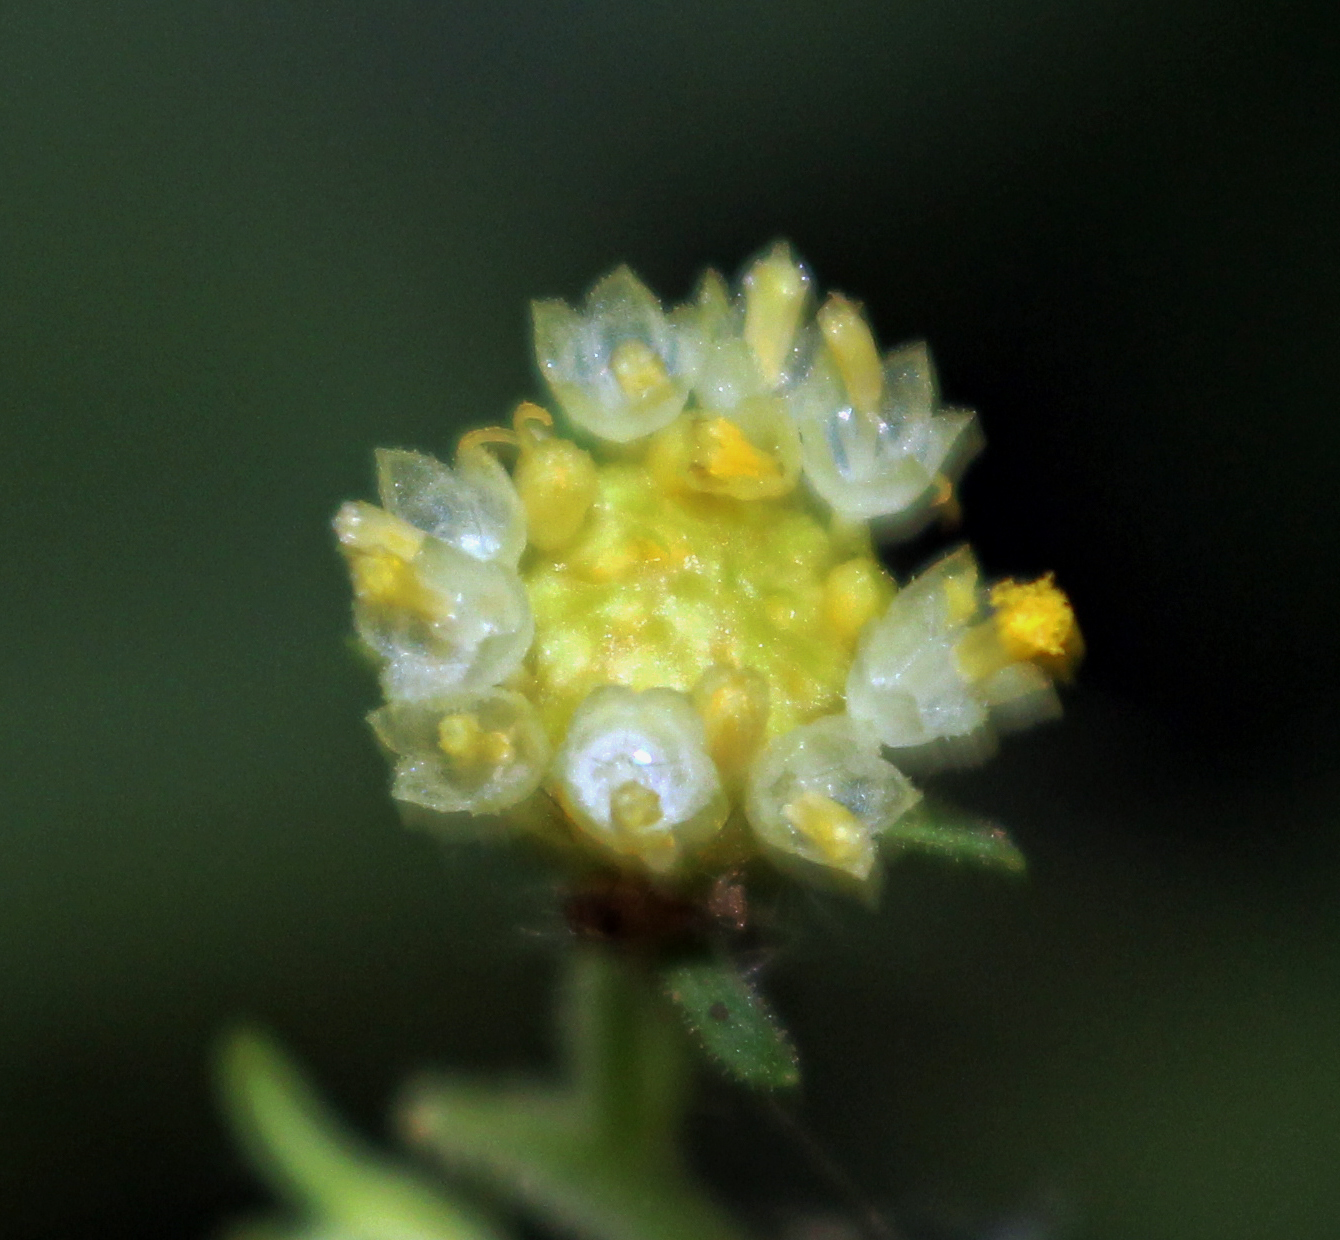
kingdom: Plantae
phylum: Tracheophyta
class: Magnoliopsida
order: Asterales
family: Asteraceae
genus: Polymnia
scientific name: Polymnia canadensis
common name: Pale-flowered leafcup
